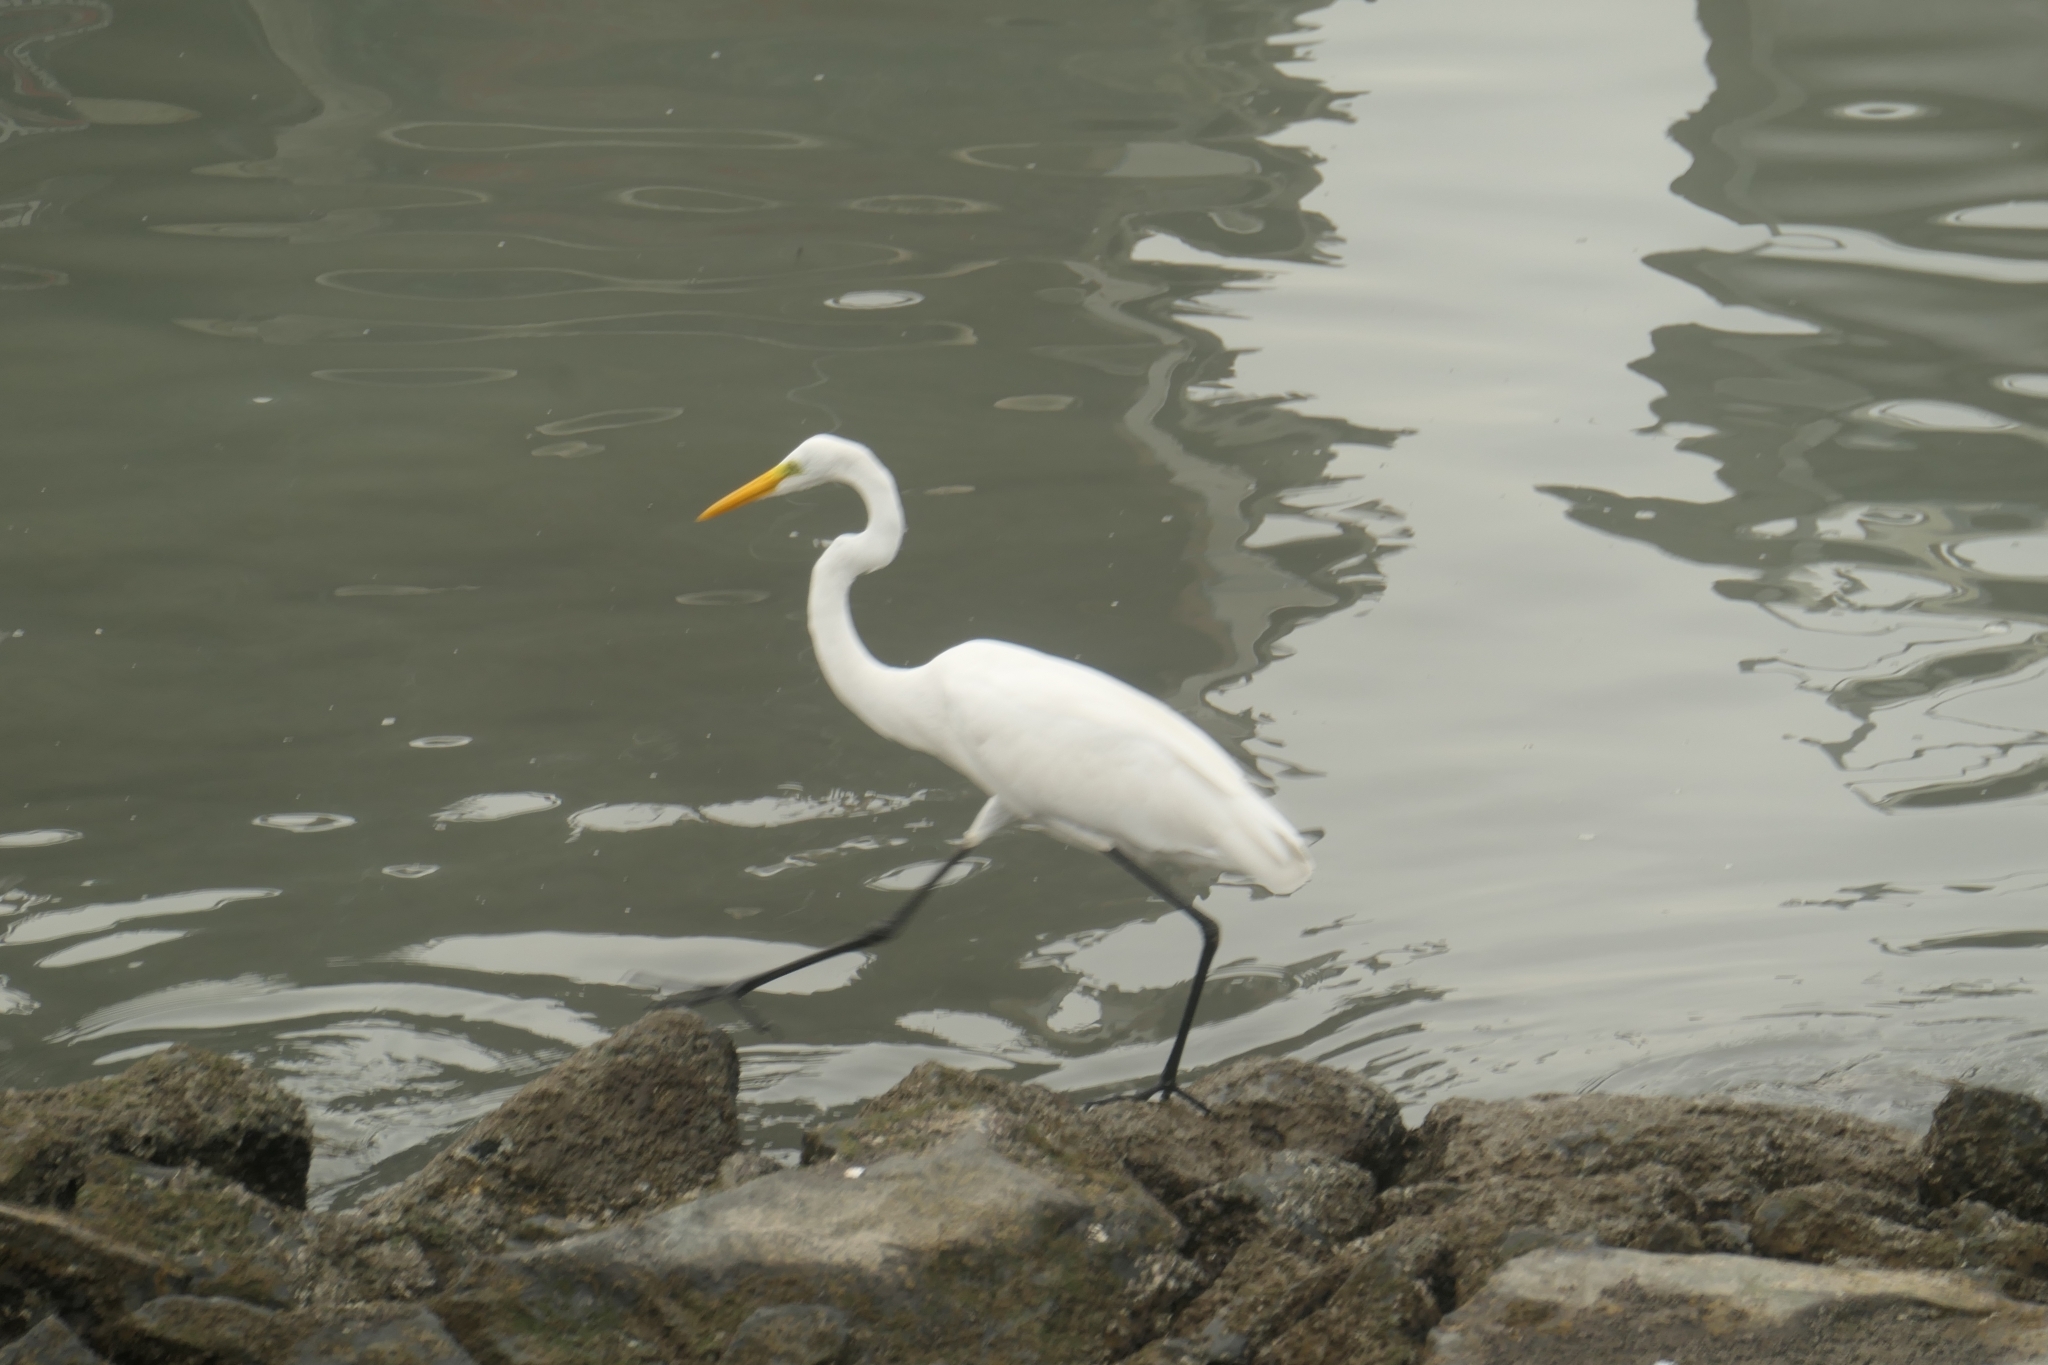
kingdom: Animalia
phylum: Chordata
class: Aves
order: Pelecaniformes
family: Ardeidae
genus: Ardea
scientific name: Ardea alba
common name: Great egret
